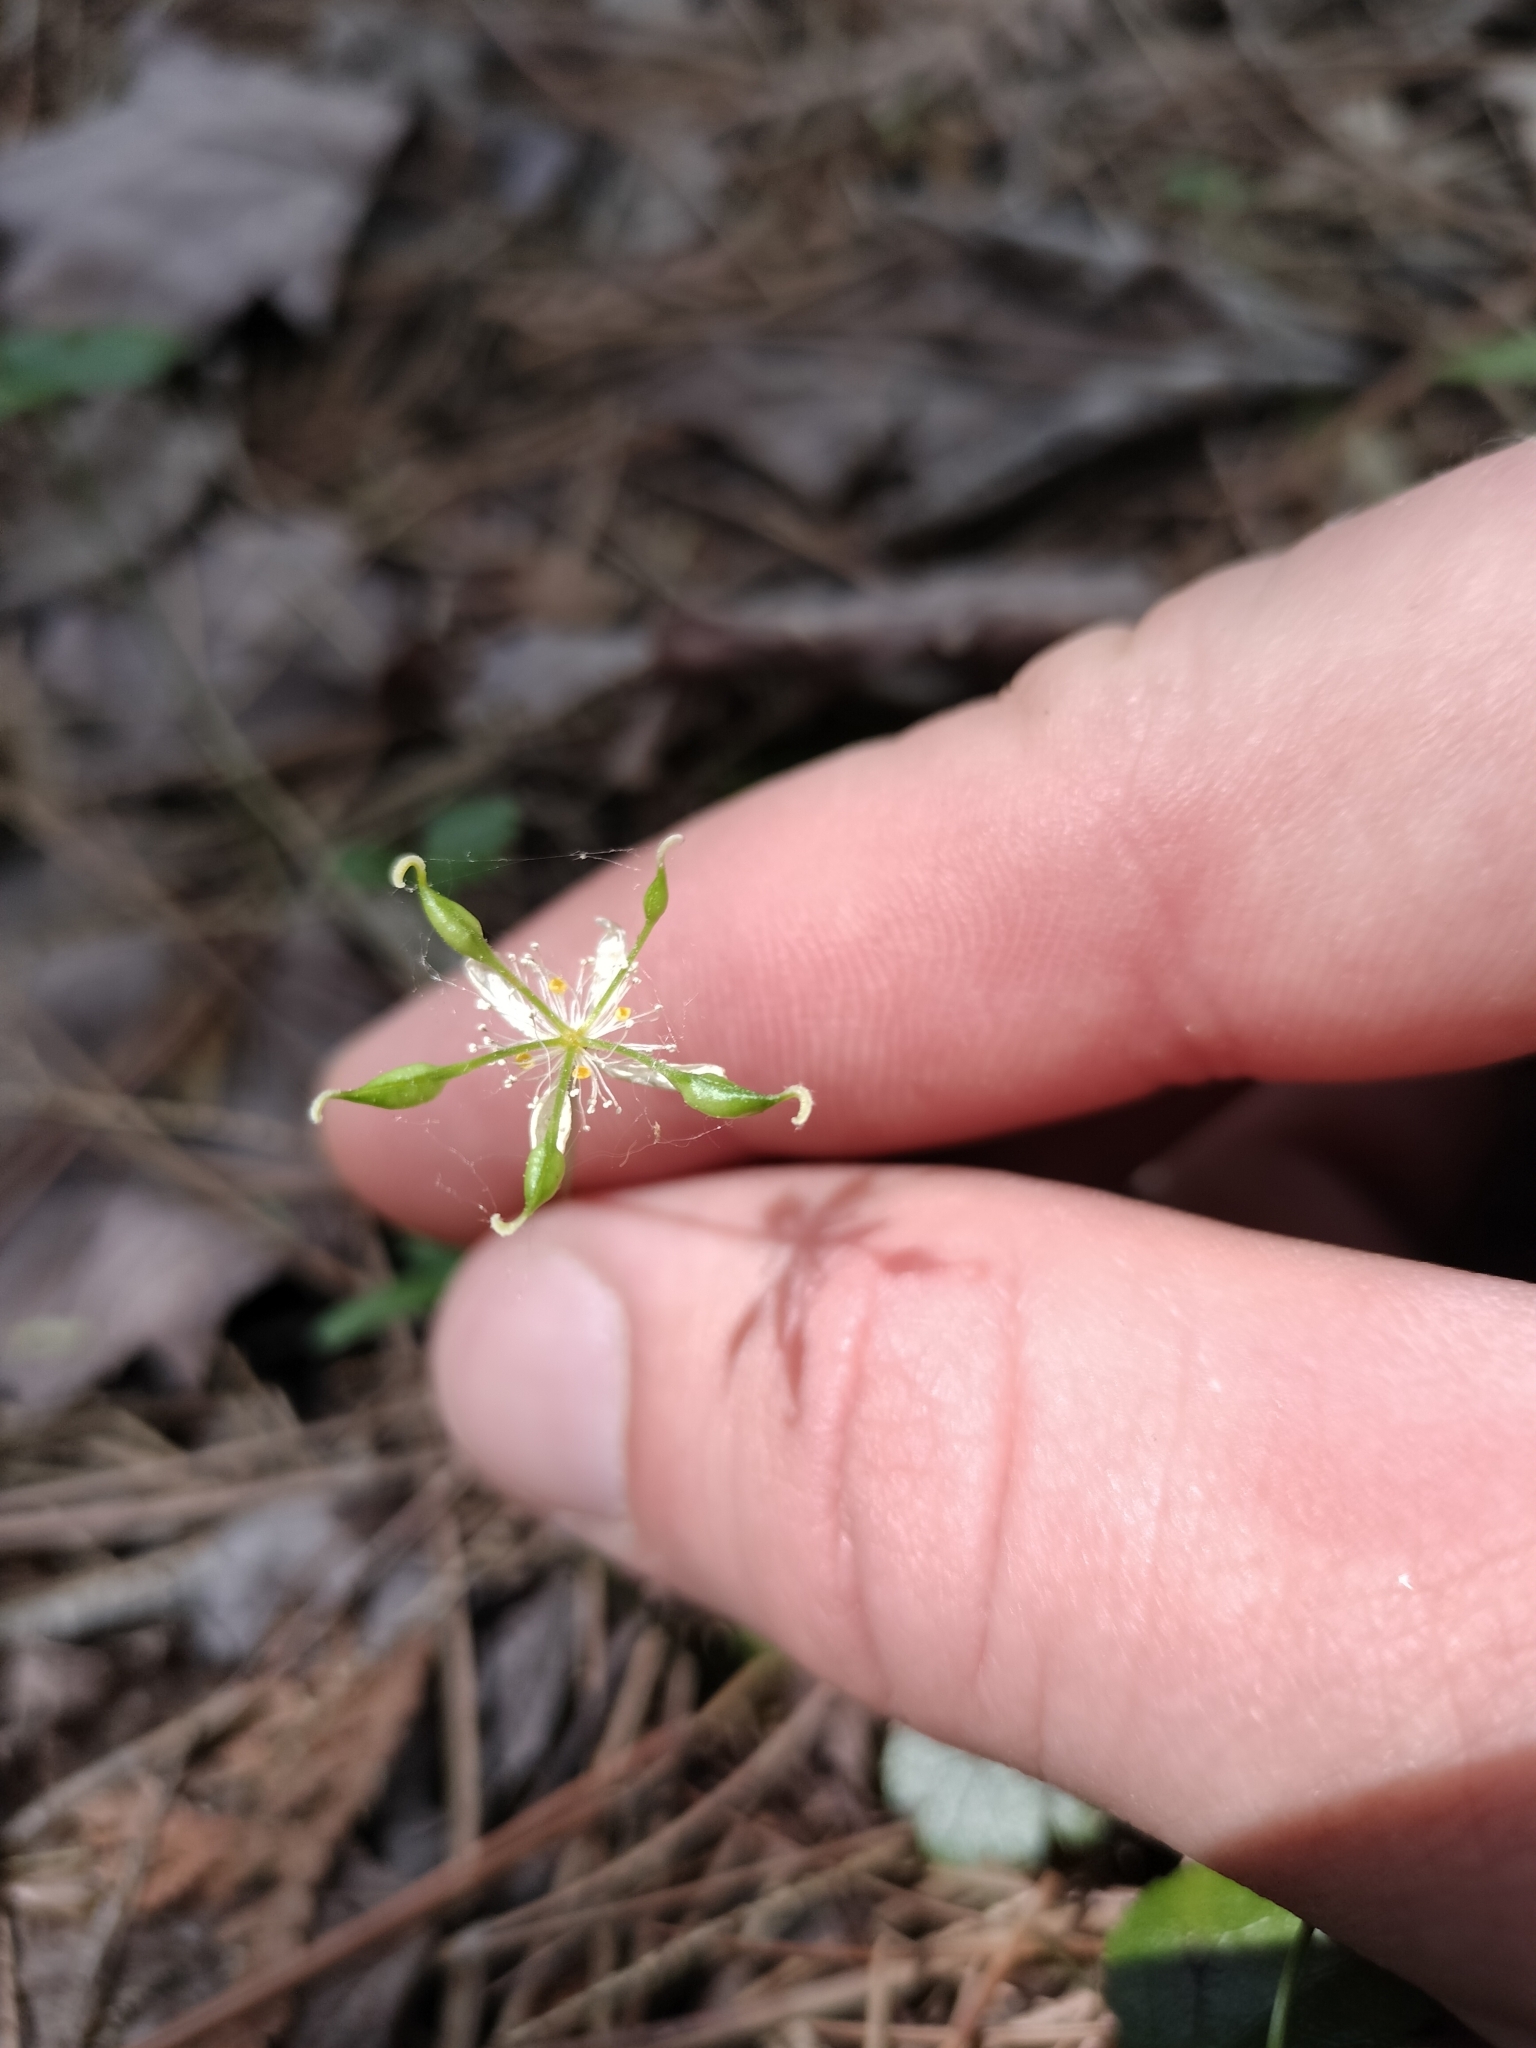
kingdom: Plantae
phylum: Tracheophyta
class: Magnoliopsida
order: Ranunculales
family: Ranunculaceae
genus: Coptis
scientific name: Coptis trifolia
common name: Canker-root
